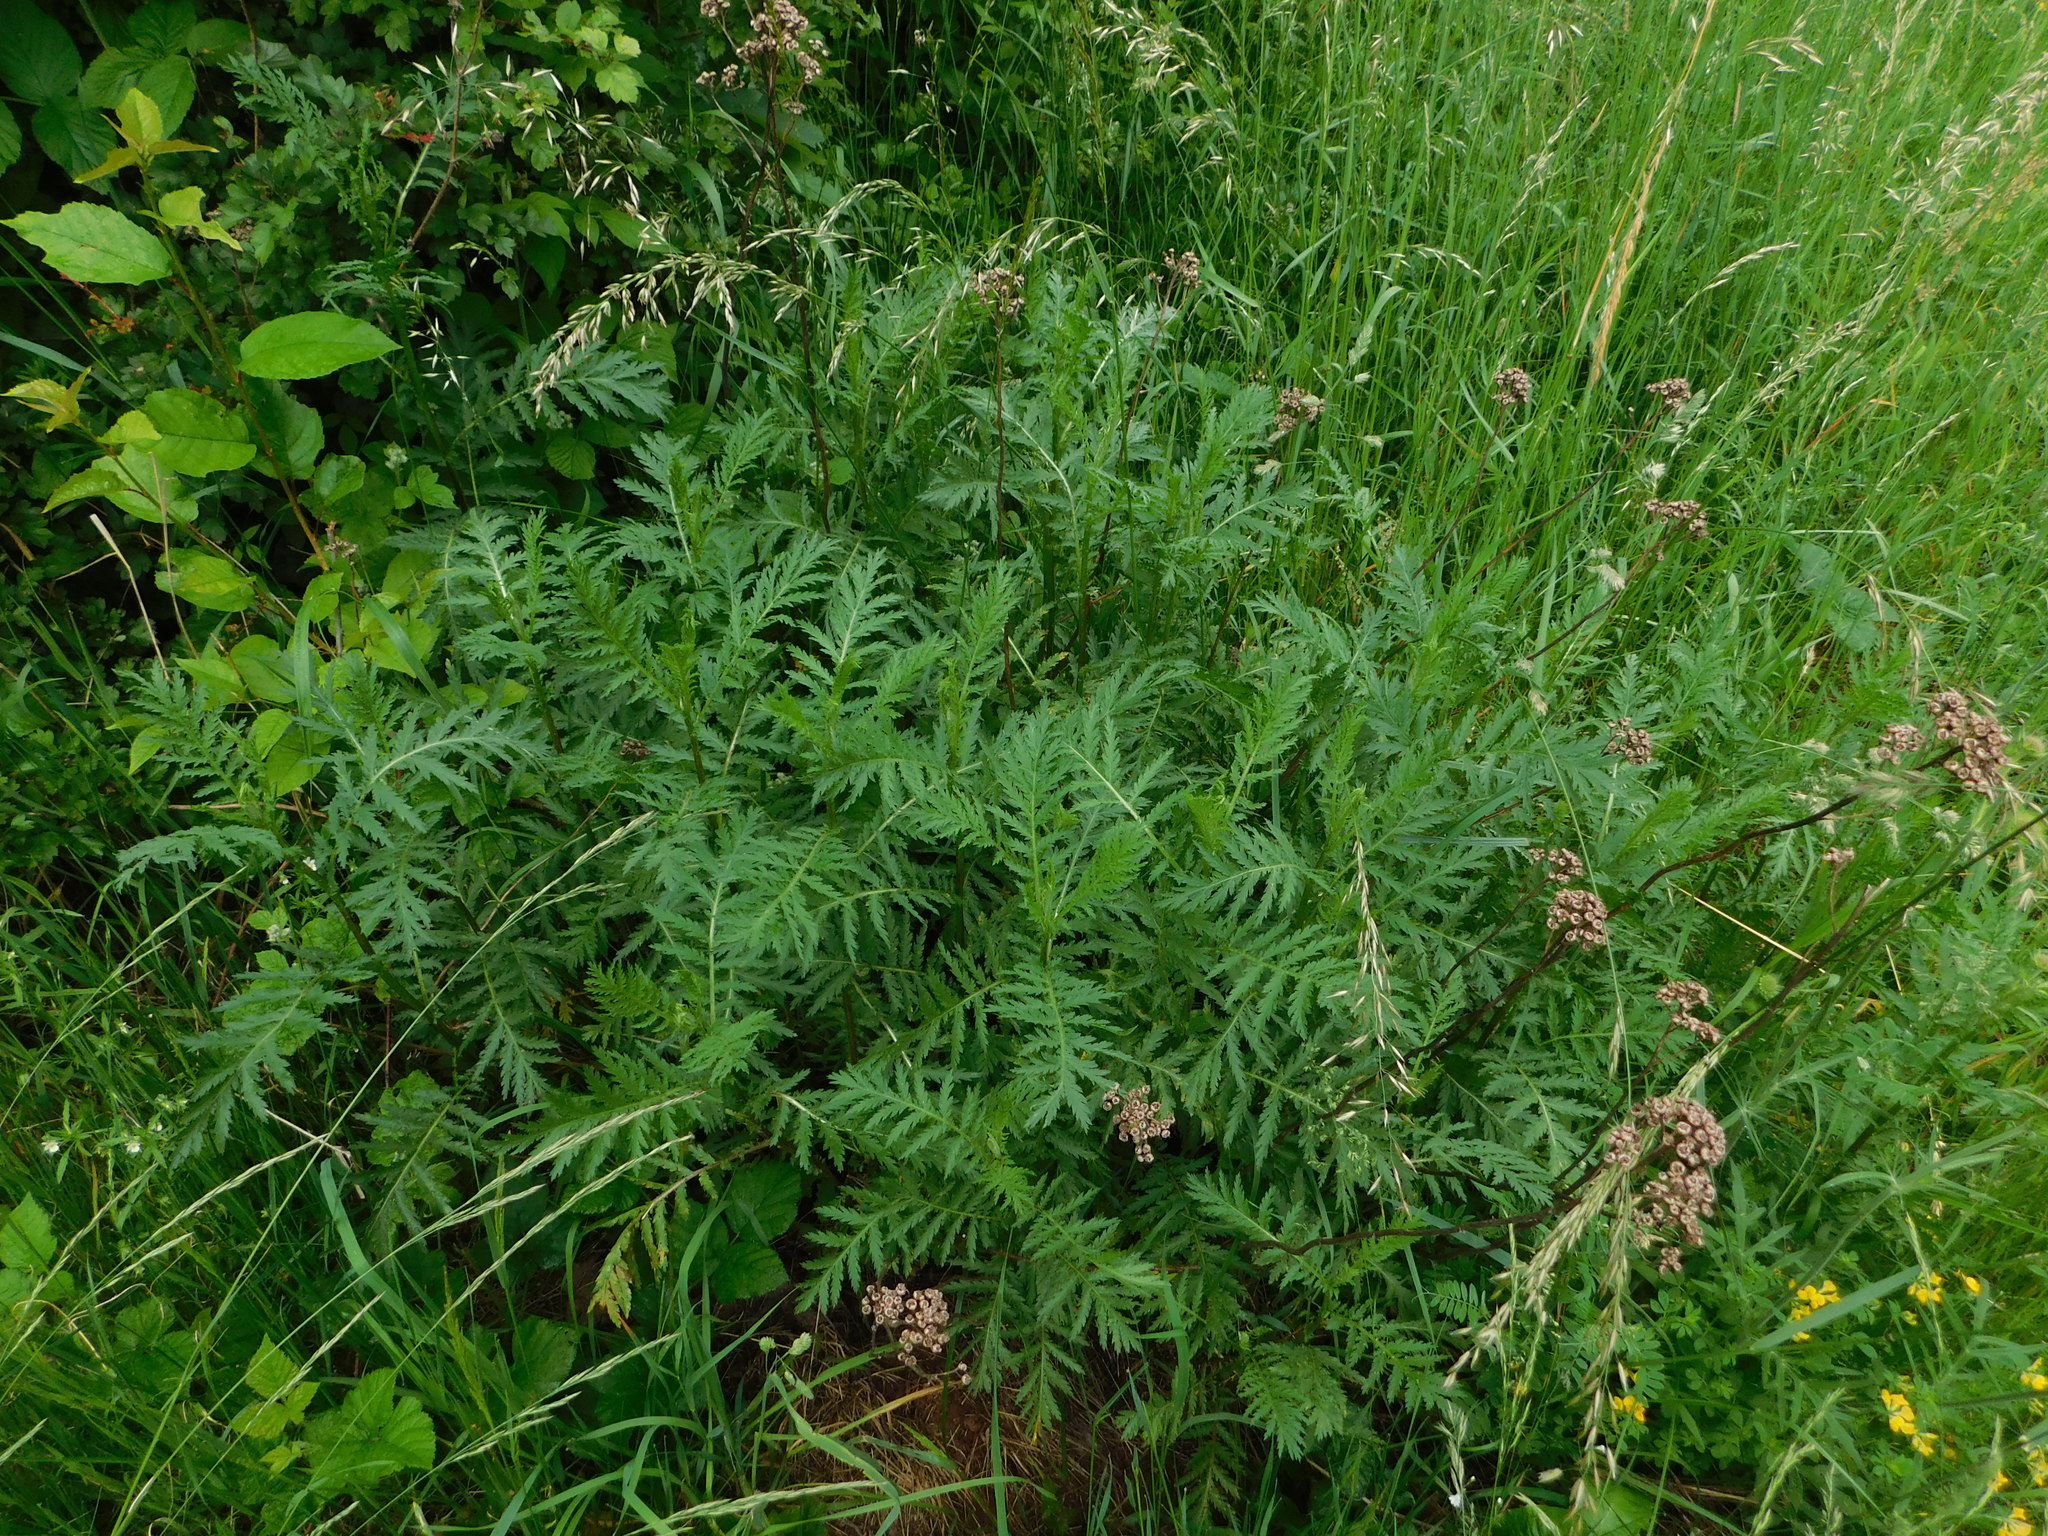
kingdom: Plantae
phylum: Tracheophyta
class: Magnoliopsida
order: Asterales
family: Asteraceae
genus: Tanacetum
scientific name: Tanacetum vulgare
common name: Common tansy
